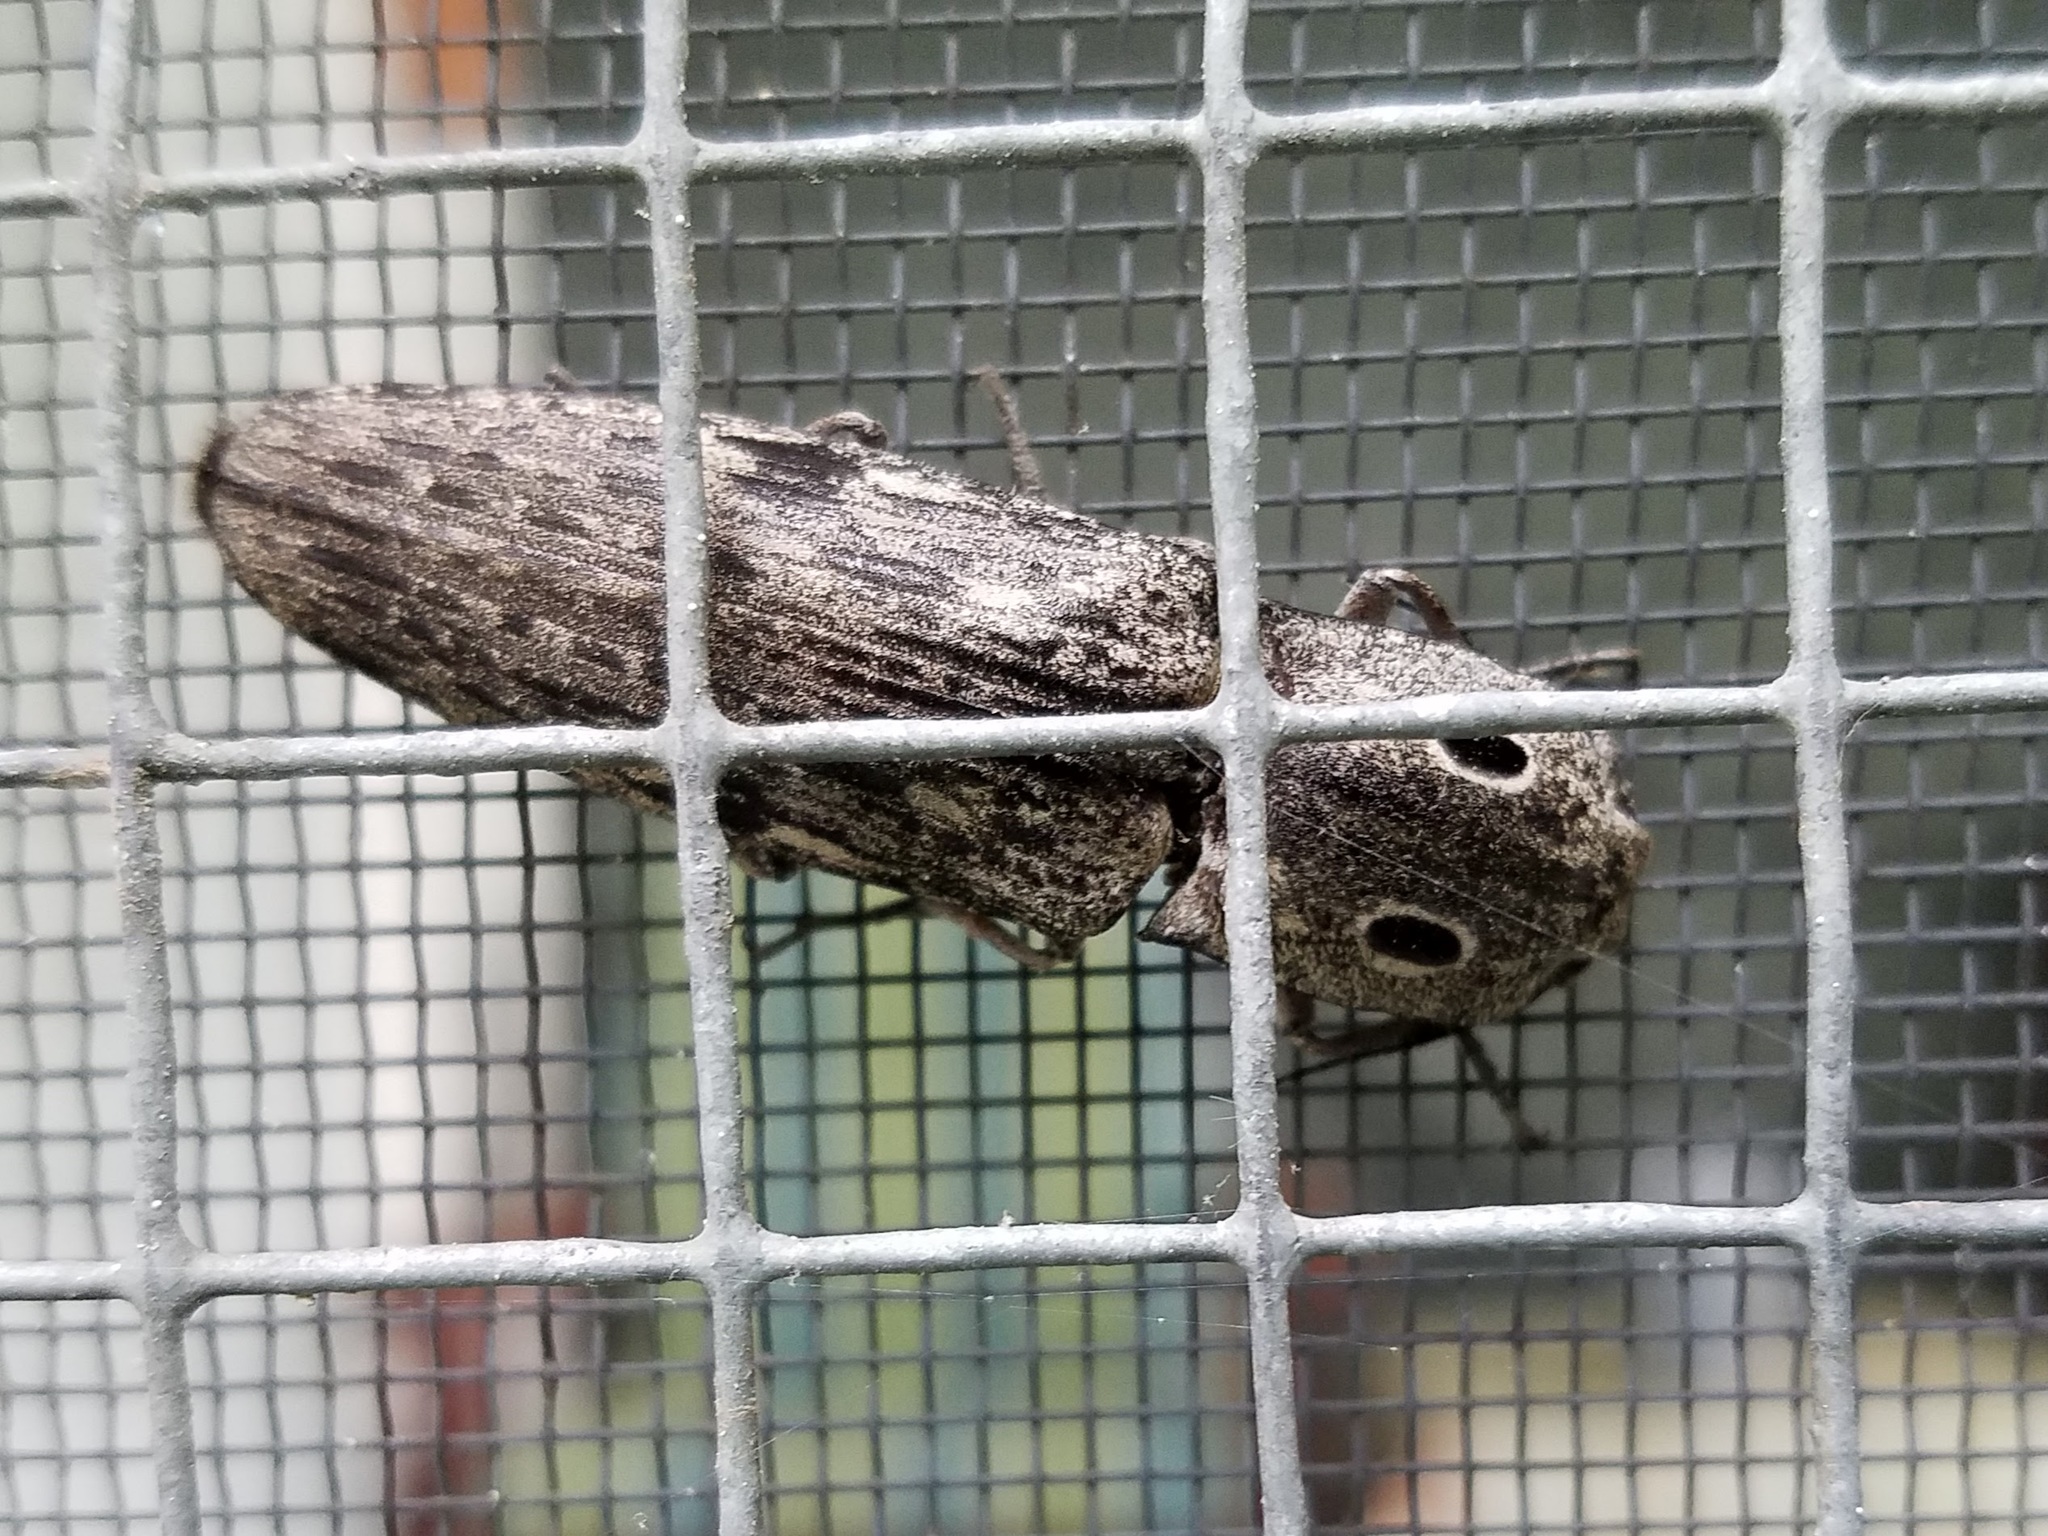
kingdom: Animalia
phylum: Arthropoda
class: Insecta
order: Coleoptera
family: Elateridae
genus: Alaus
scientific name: Alaus myops
